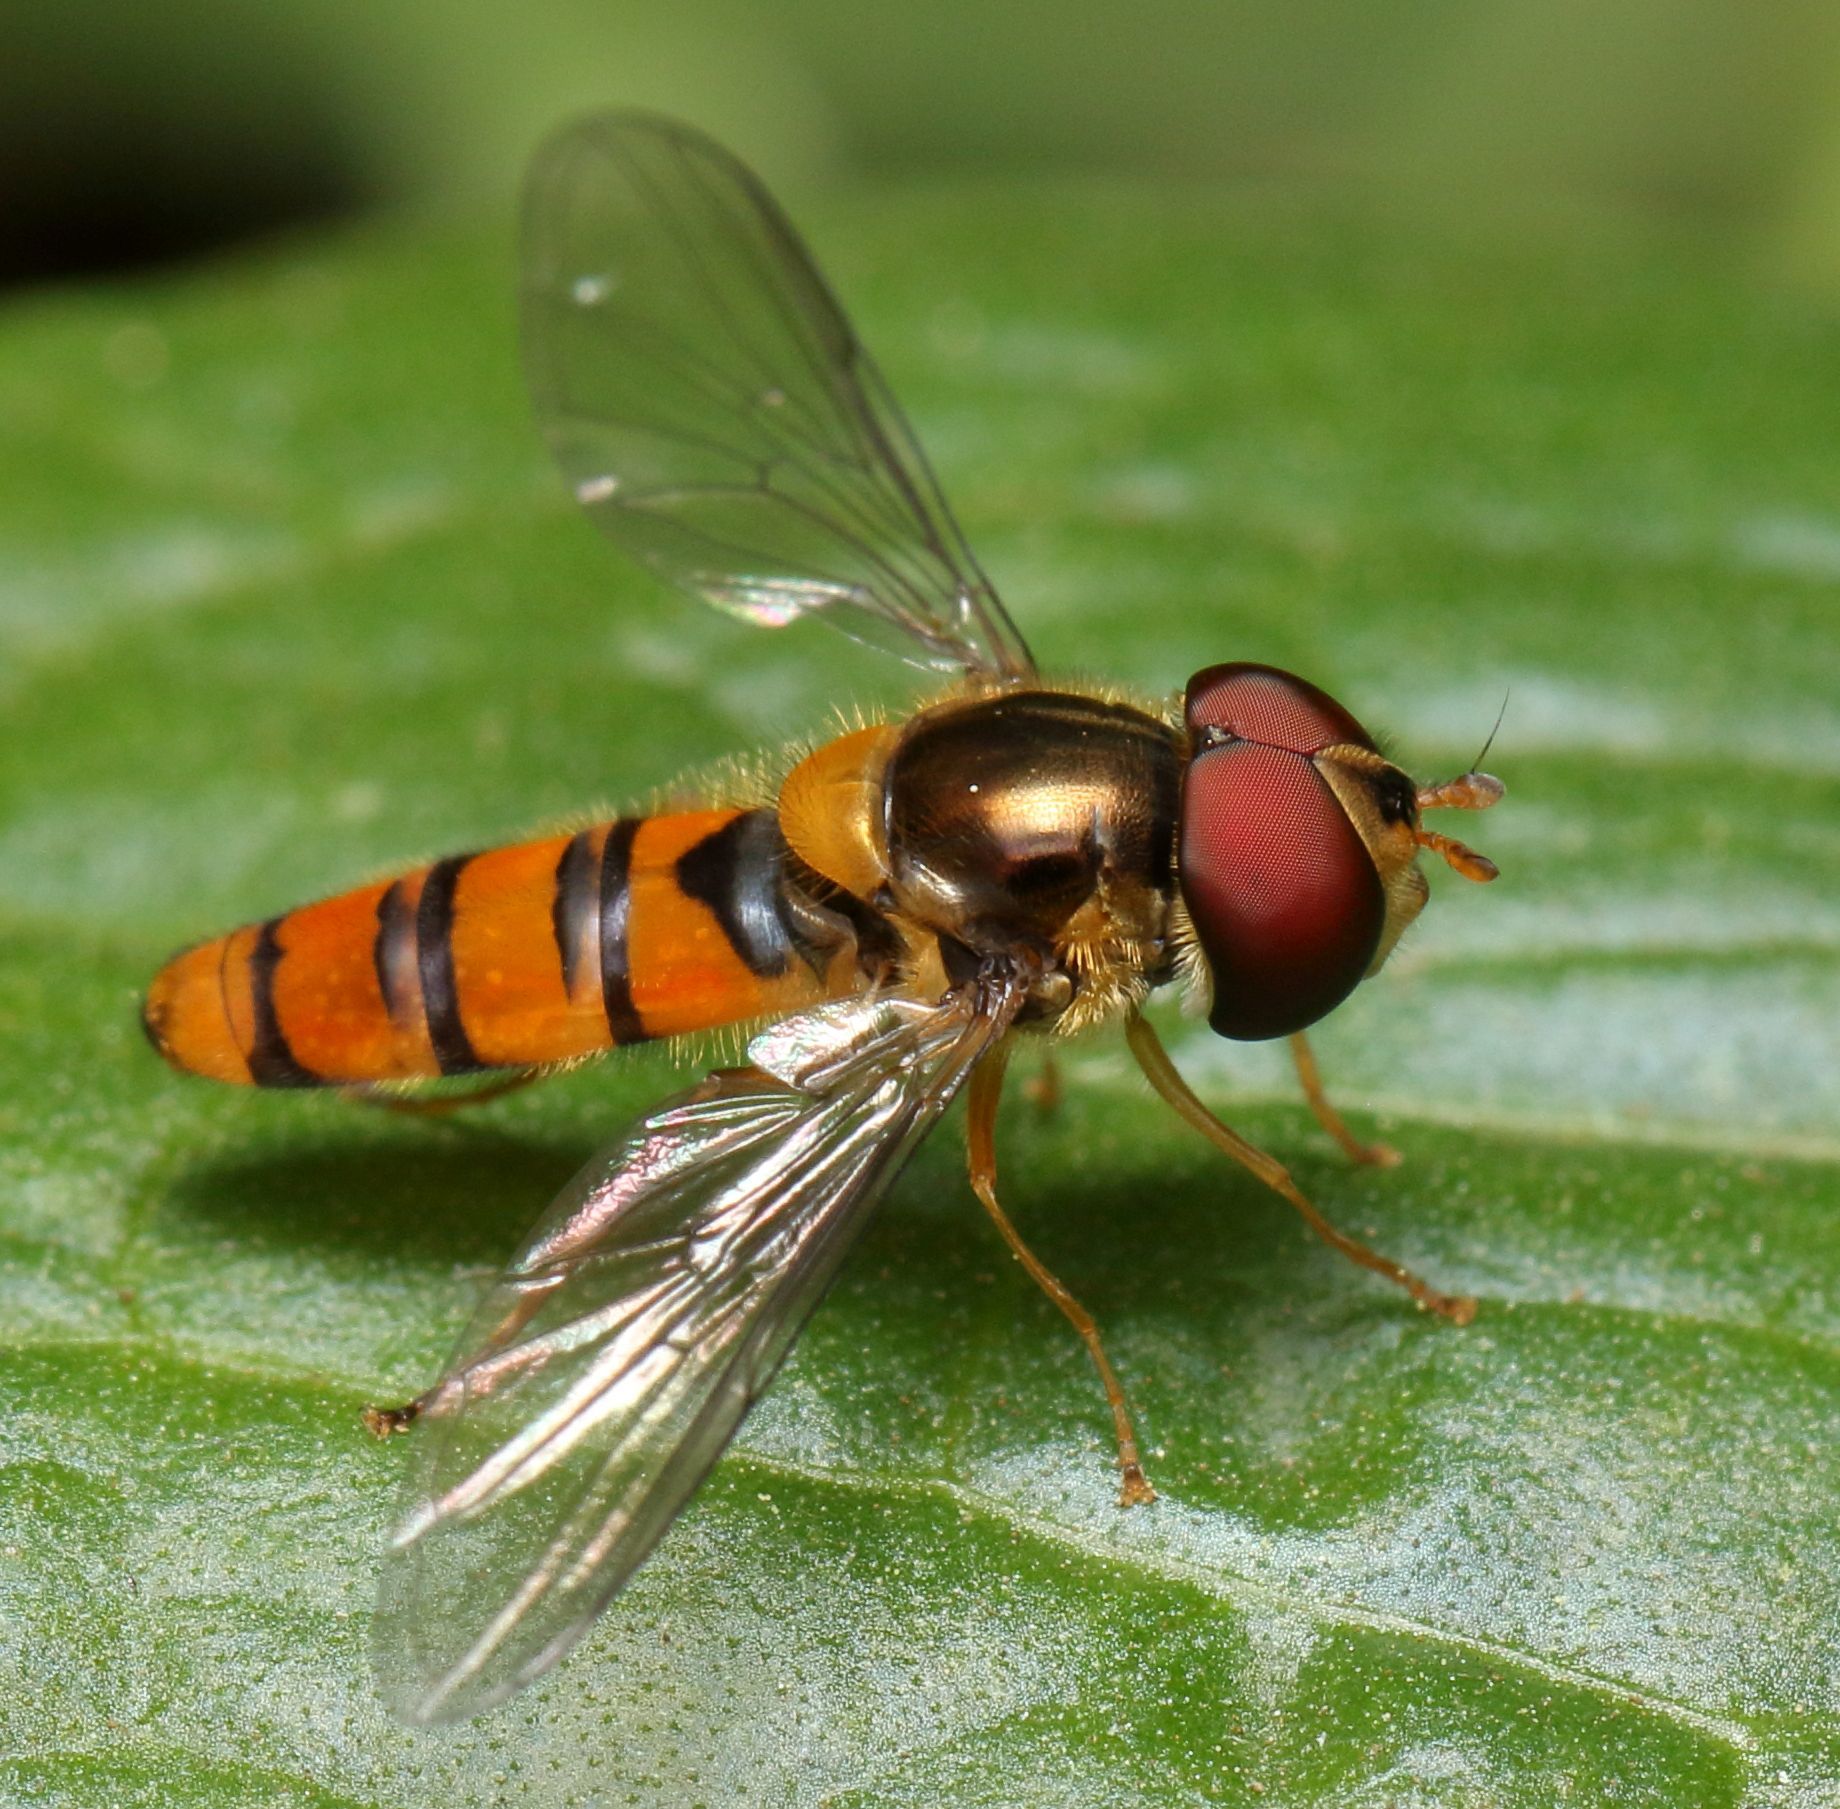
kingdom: Animalia
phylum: Arthropoda
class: Insecta
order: Diptera
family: Syrphidae
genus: Episyrphus
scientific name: Episyrphus trisectus
